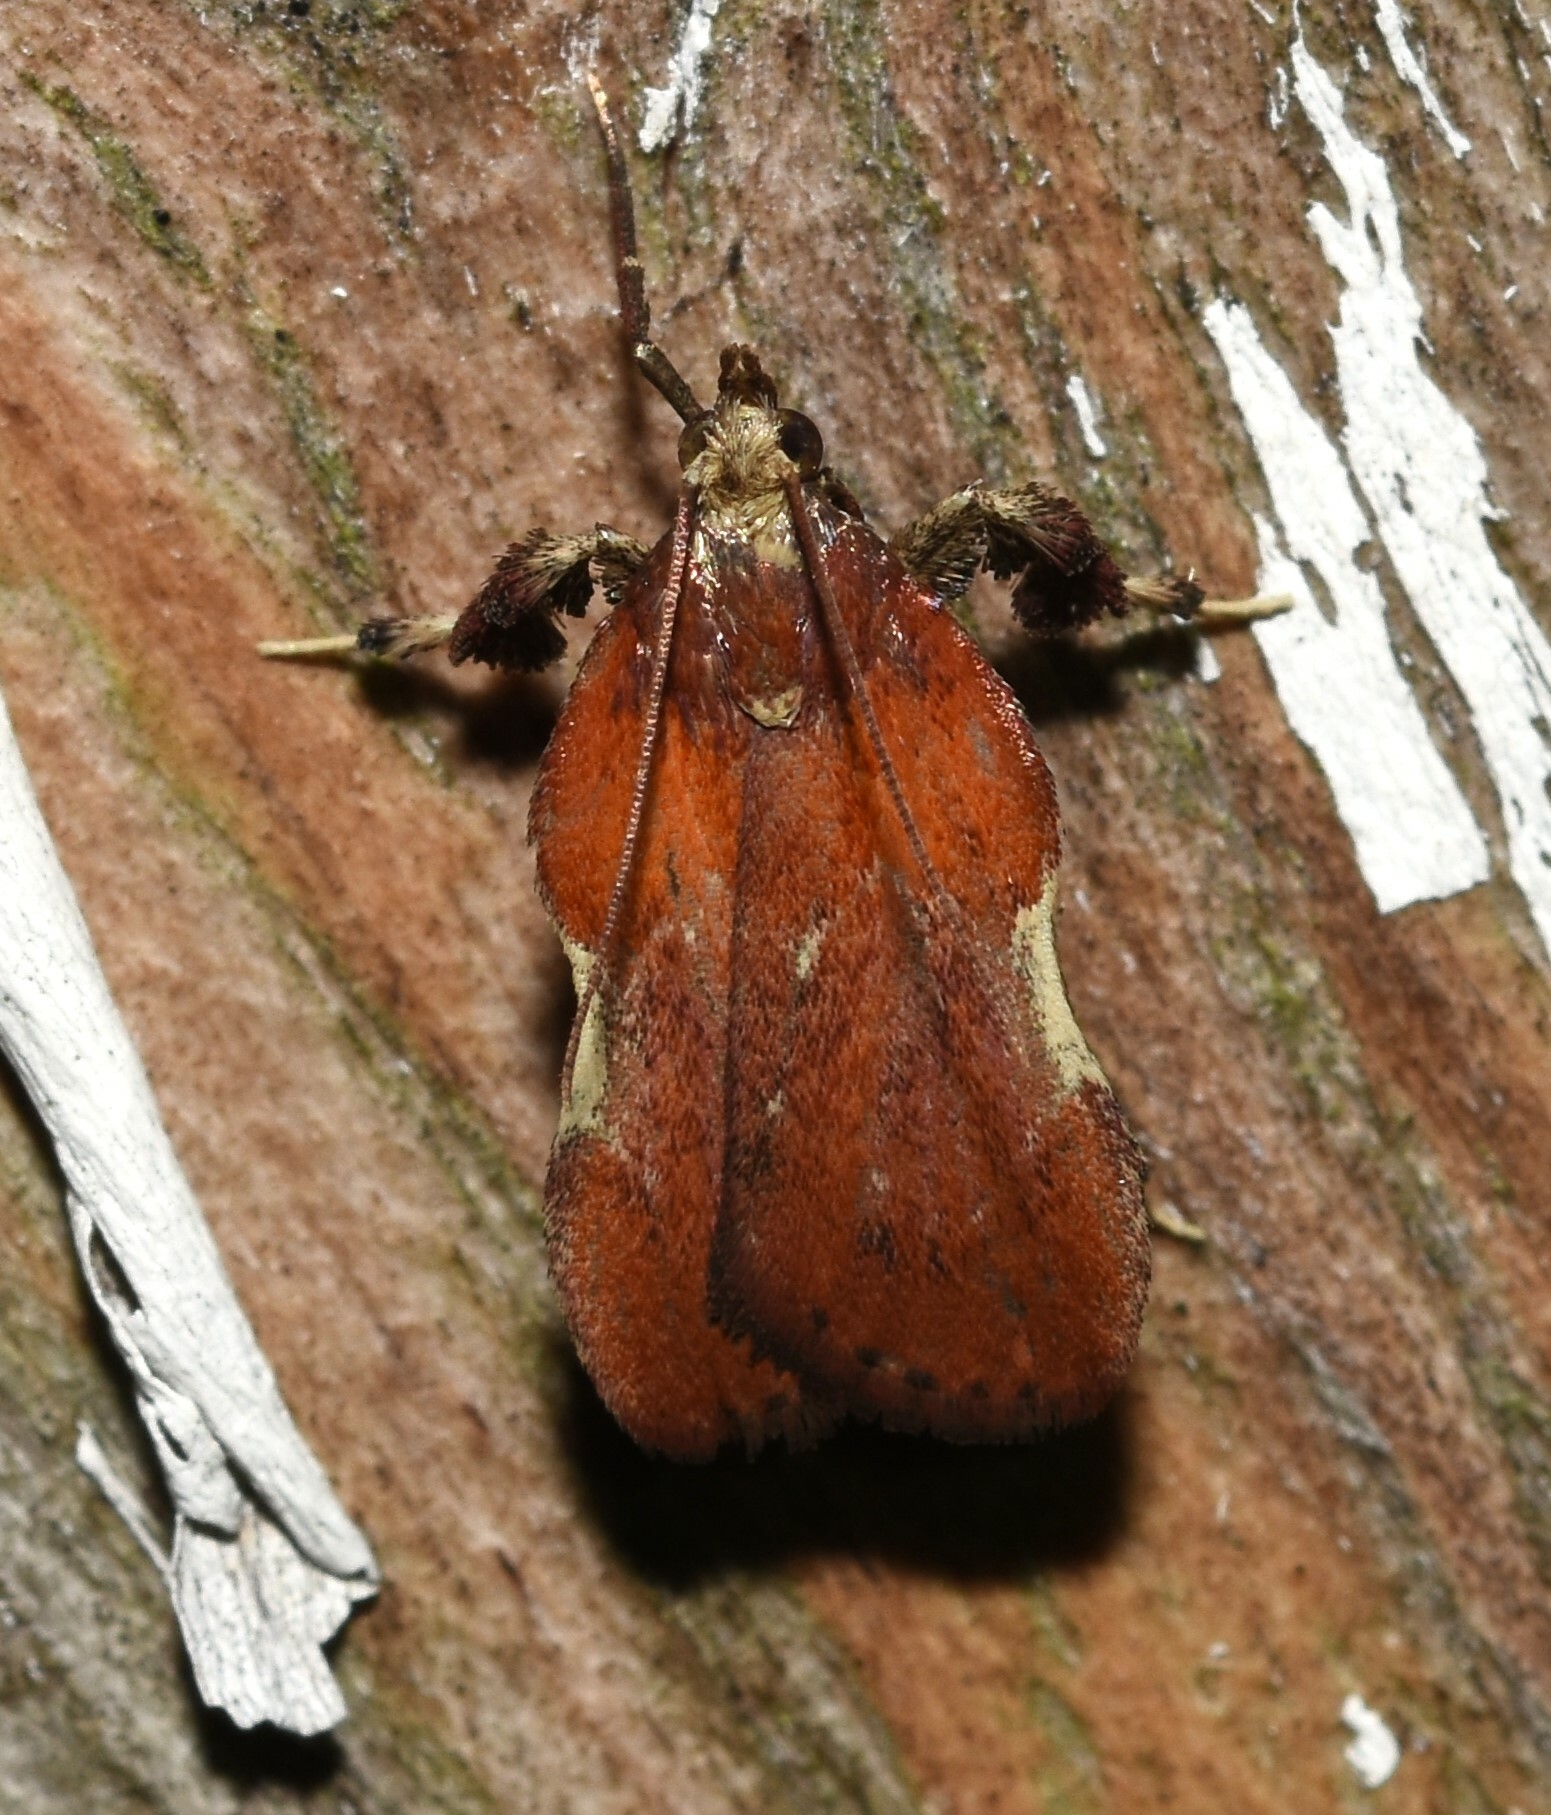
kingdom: Animalia
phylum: Arthropoda
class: Insecta
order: Lepidoptera
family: Pyralidae
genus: Galasa
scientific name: Galasa nigrinodis
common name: Boxwood leaftier moth
